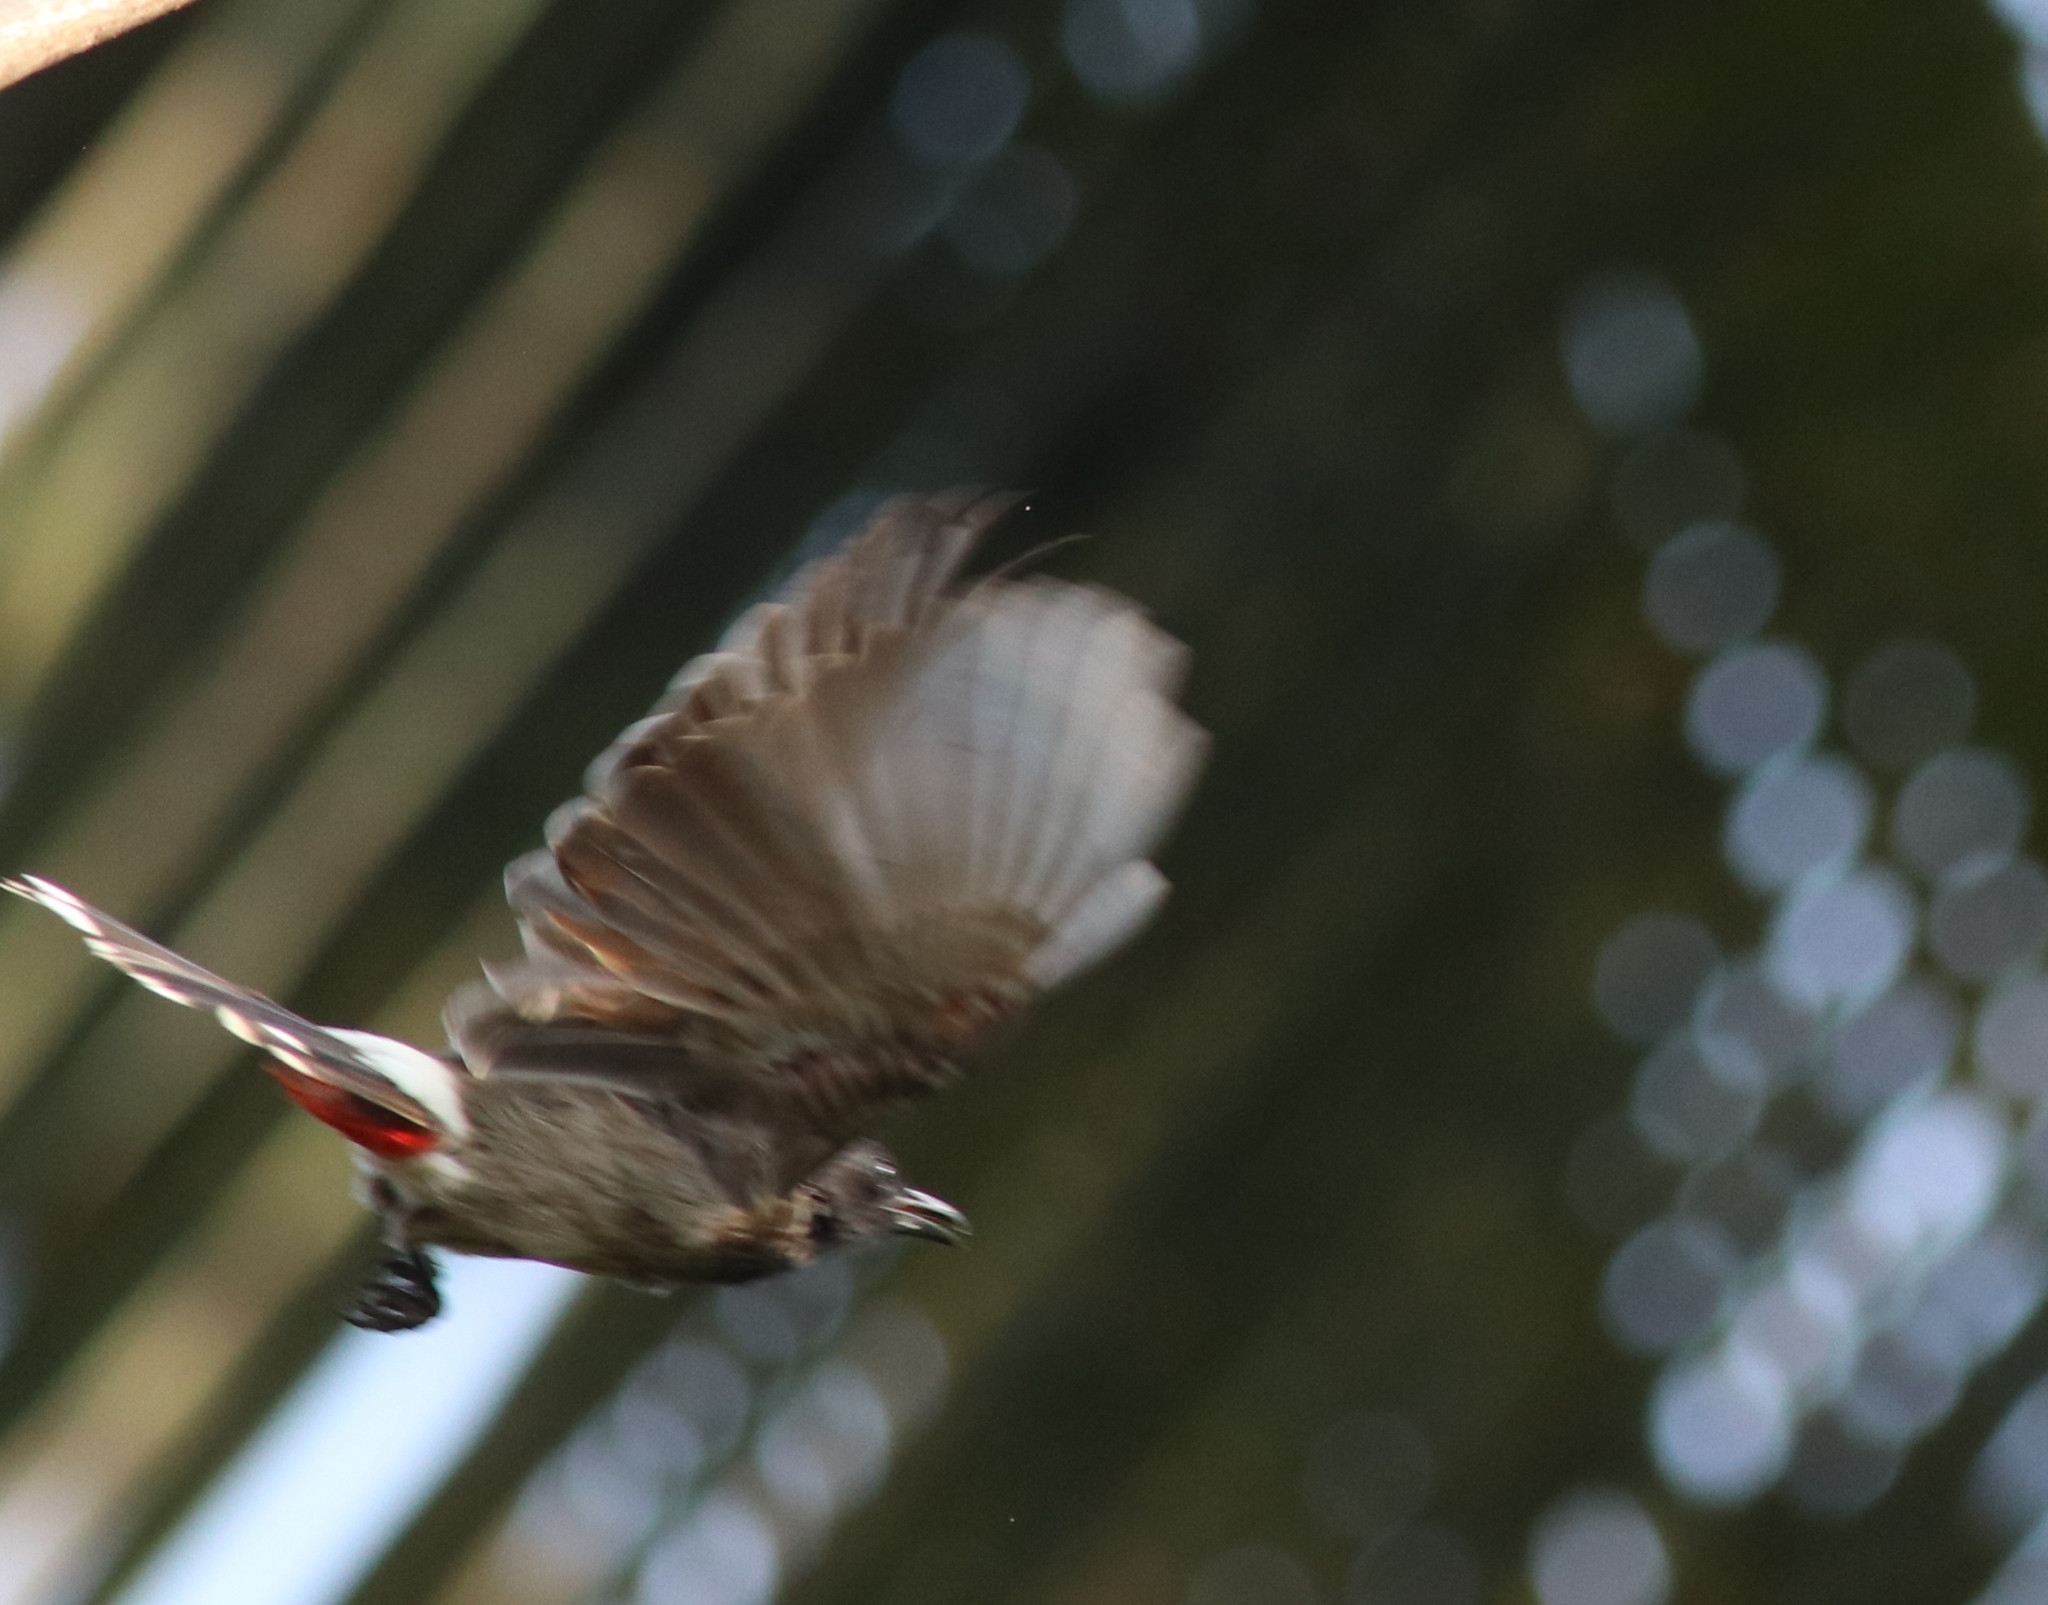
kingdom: Animalia
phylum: Chordata
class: Aves
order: Passeriformes
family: Pycnonotidae
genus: Pycnonotus
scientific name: Pycnonotus cafer
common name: Red-vented bulbul
